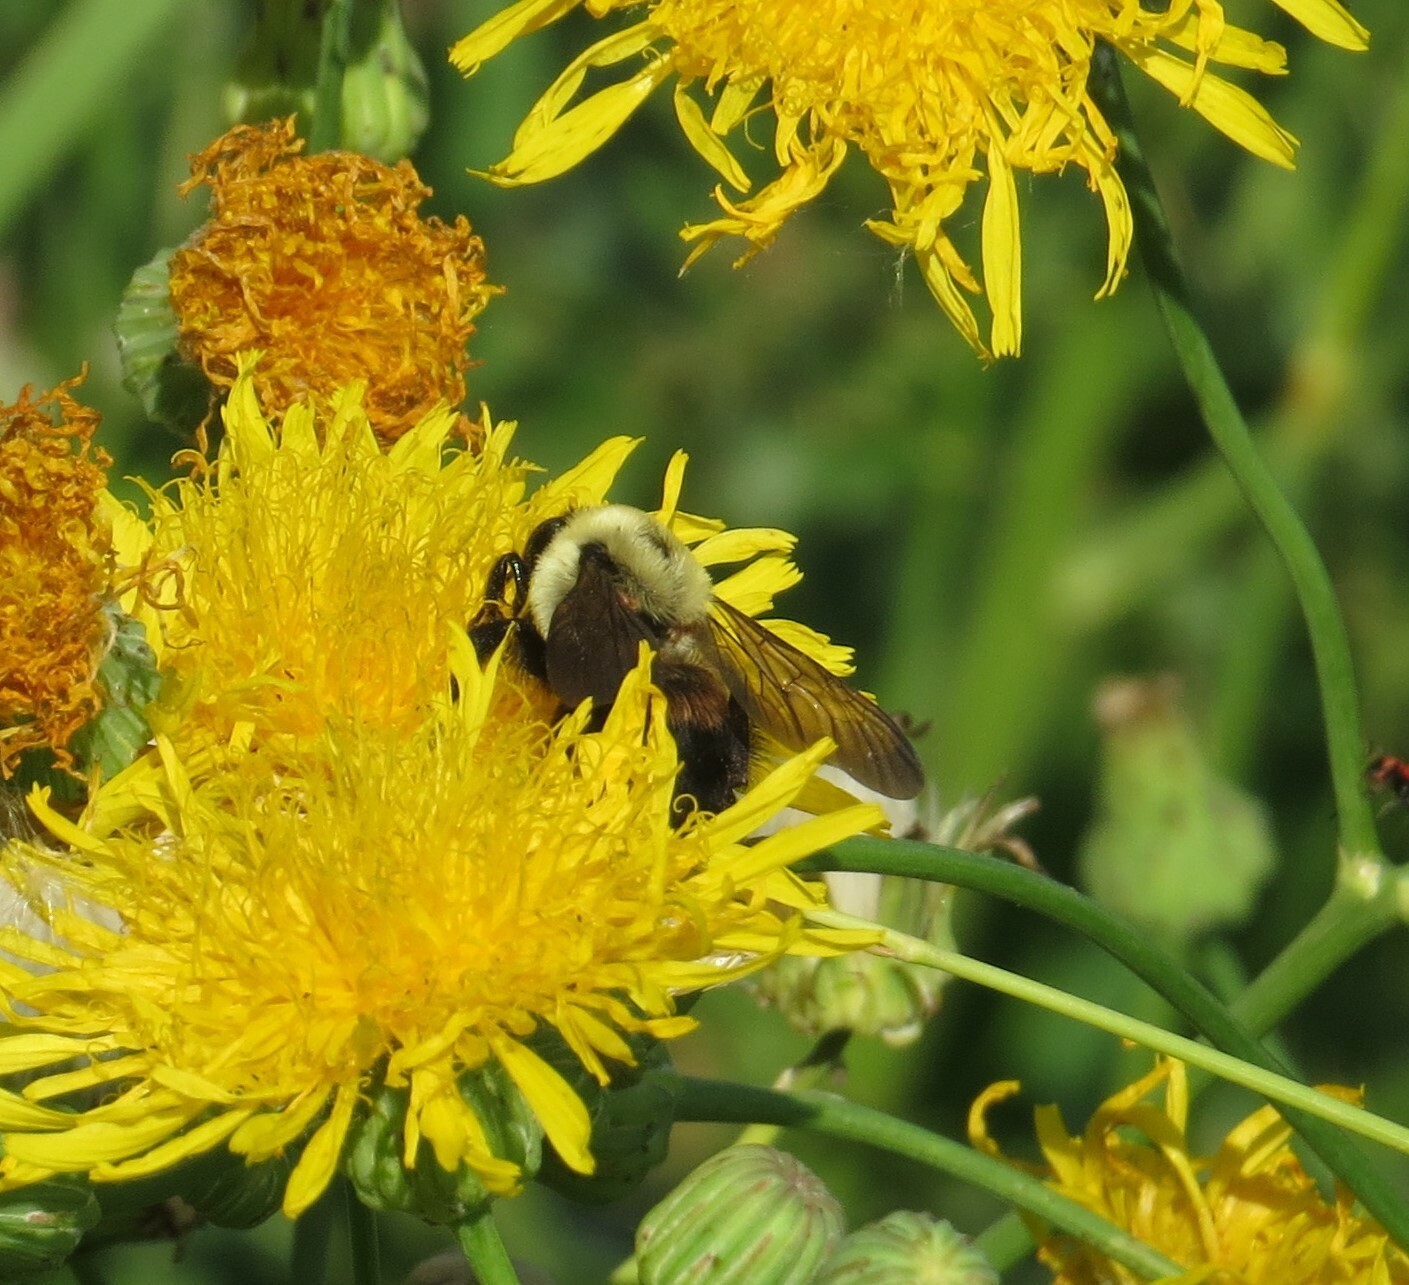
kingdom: Animalia
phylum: Arthropoda
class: Insecta
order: Hymenoptera
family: Apidae
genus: Bombus
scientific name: Bombus griseocollis
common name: Brown-belted bumble bee
